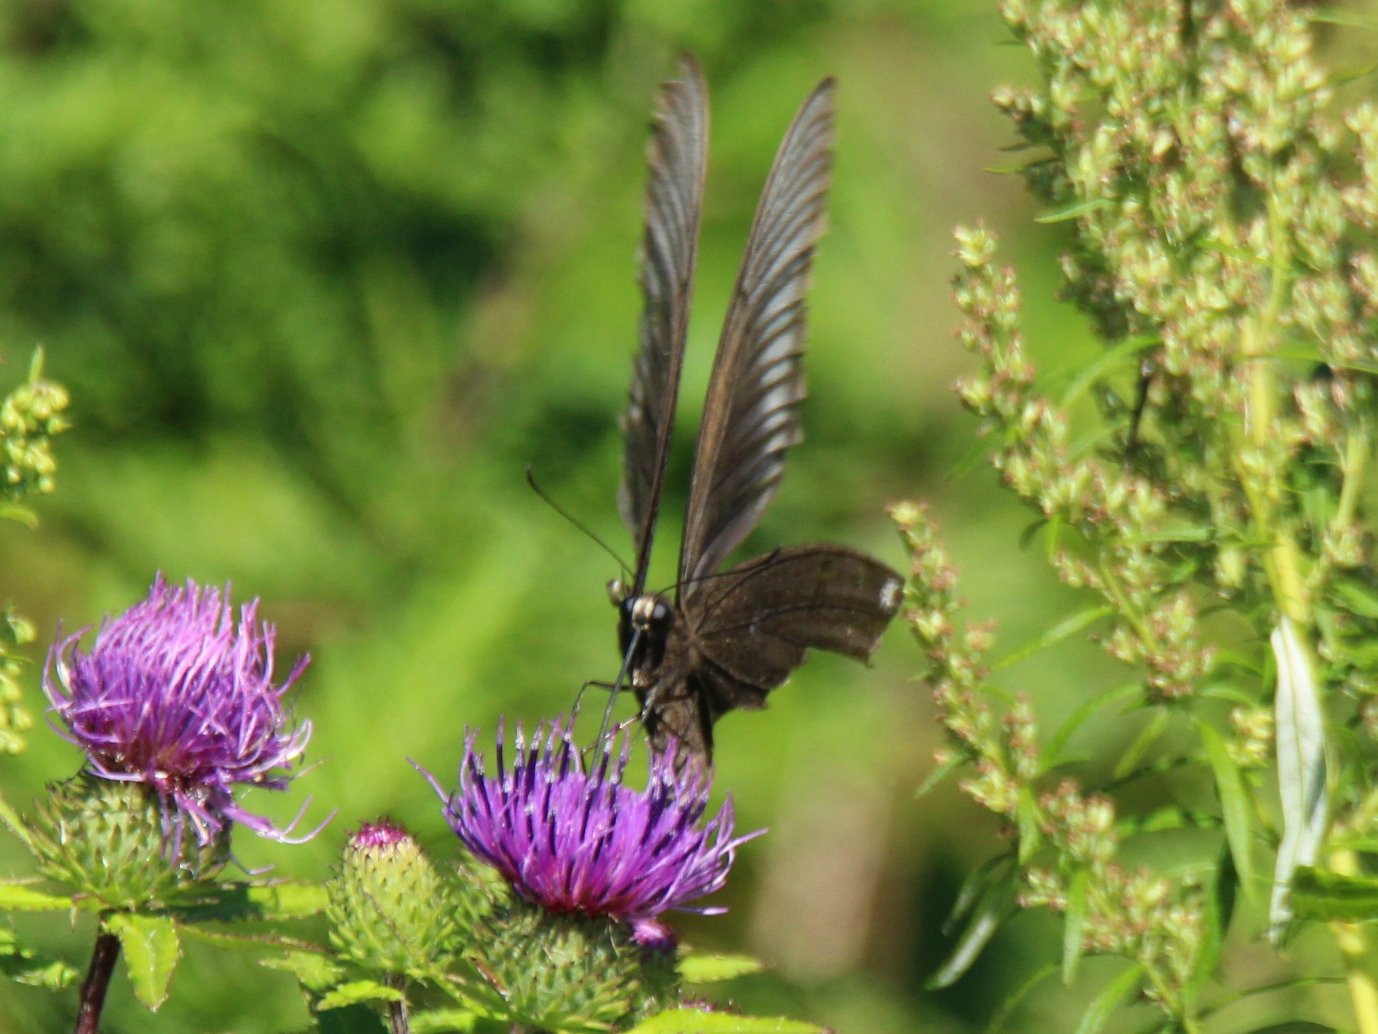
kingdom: Animalia
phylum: Arthropoda
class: Insecta
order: Lepidoptera
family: Papilionidae
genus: Papilio
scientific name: Papilio maackii
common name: Alpine black swallowtail
